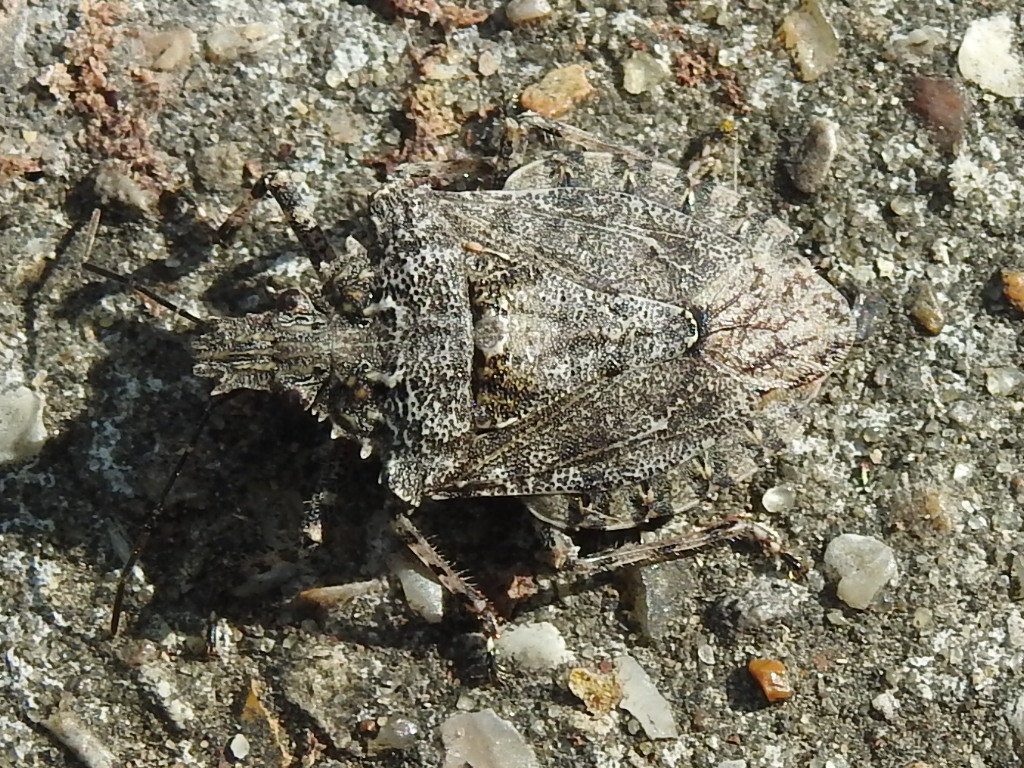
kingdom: Animalia
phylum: Arthropoda
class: Insecta
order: Hemiptera
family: Pentatomidae
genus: Brochymena
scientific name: Brochymena arborea
